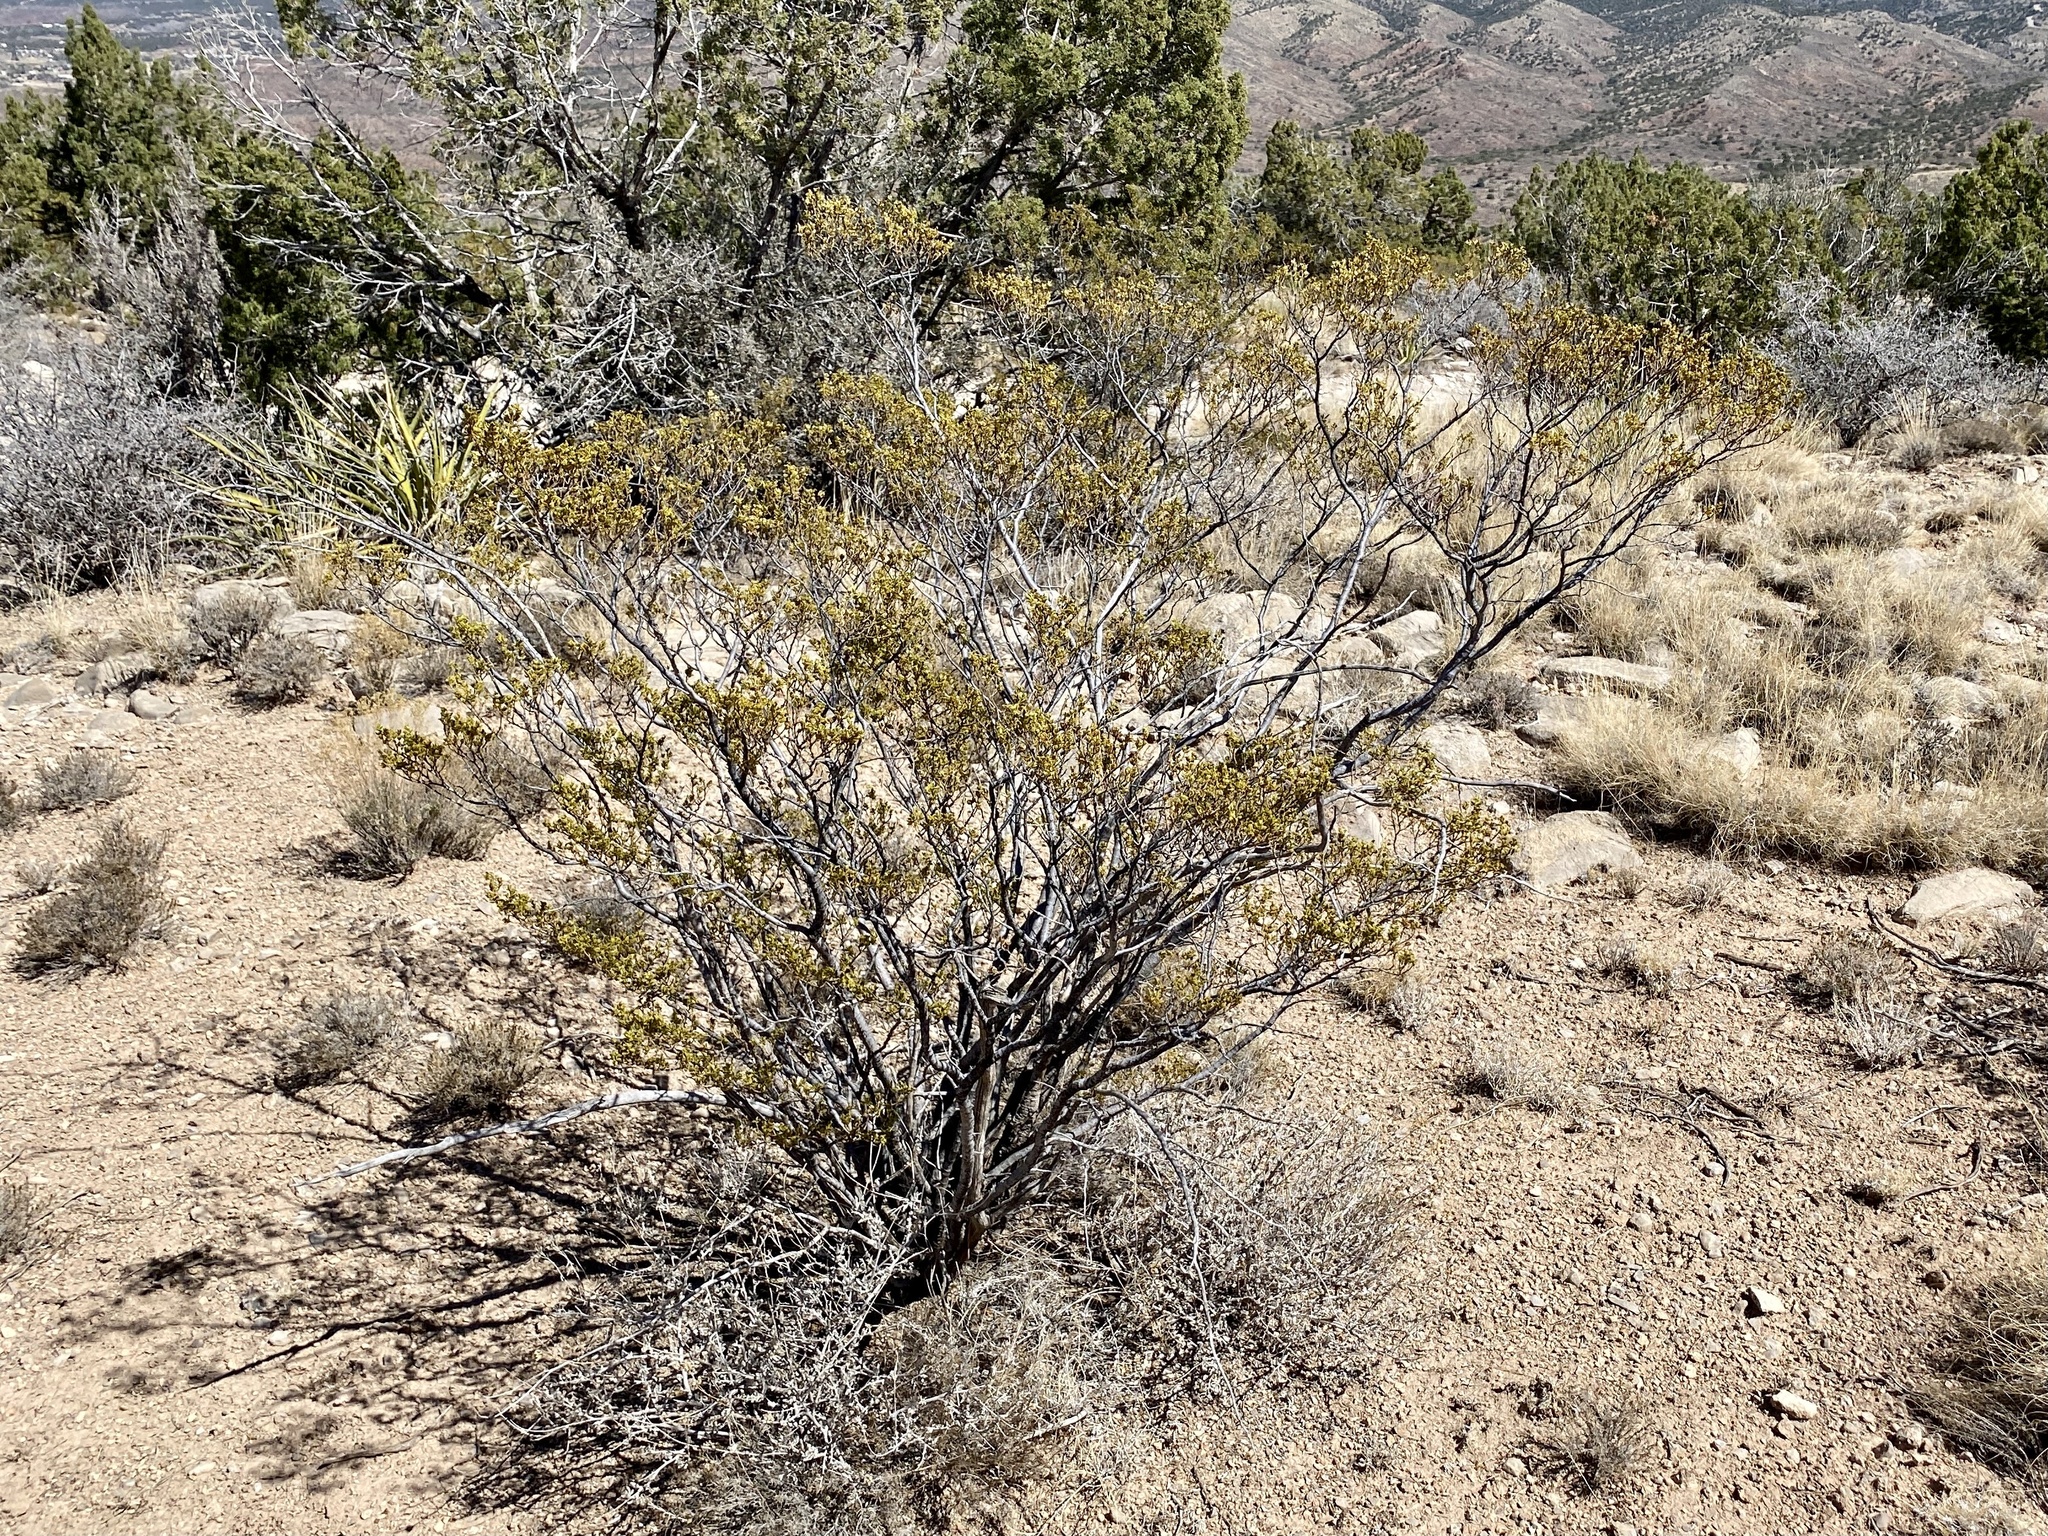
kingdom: Plantae
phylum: Tracheophyta
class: Magnoliopsida
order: Zygophyllales
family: Zygophyllaceae
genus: Larrea
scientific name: Larrea tridentata
